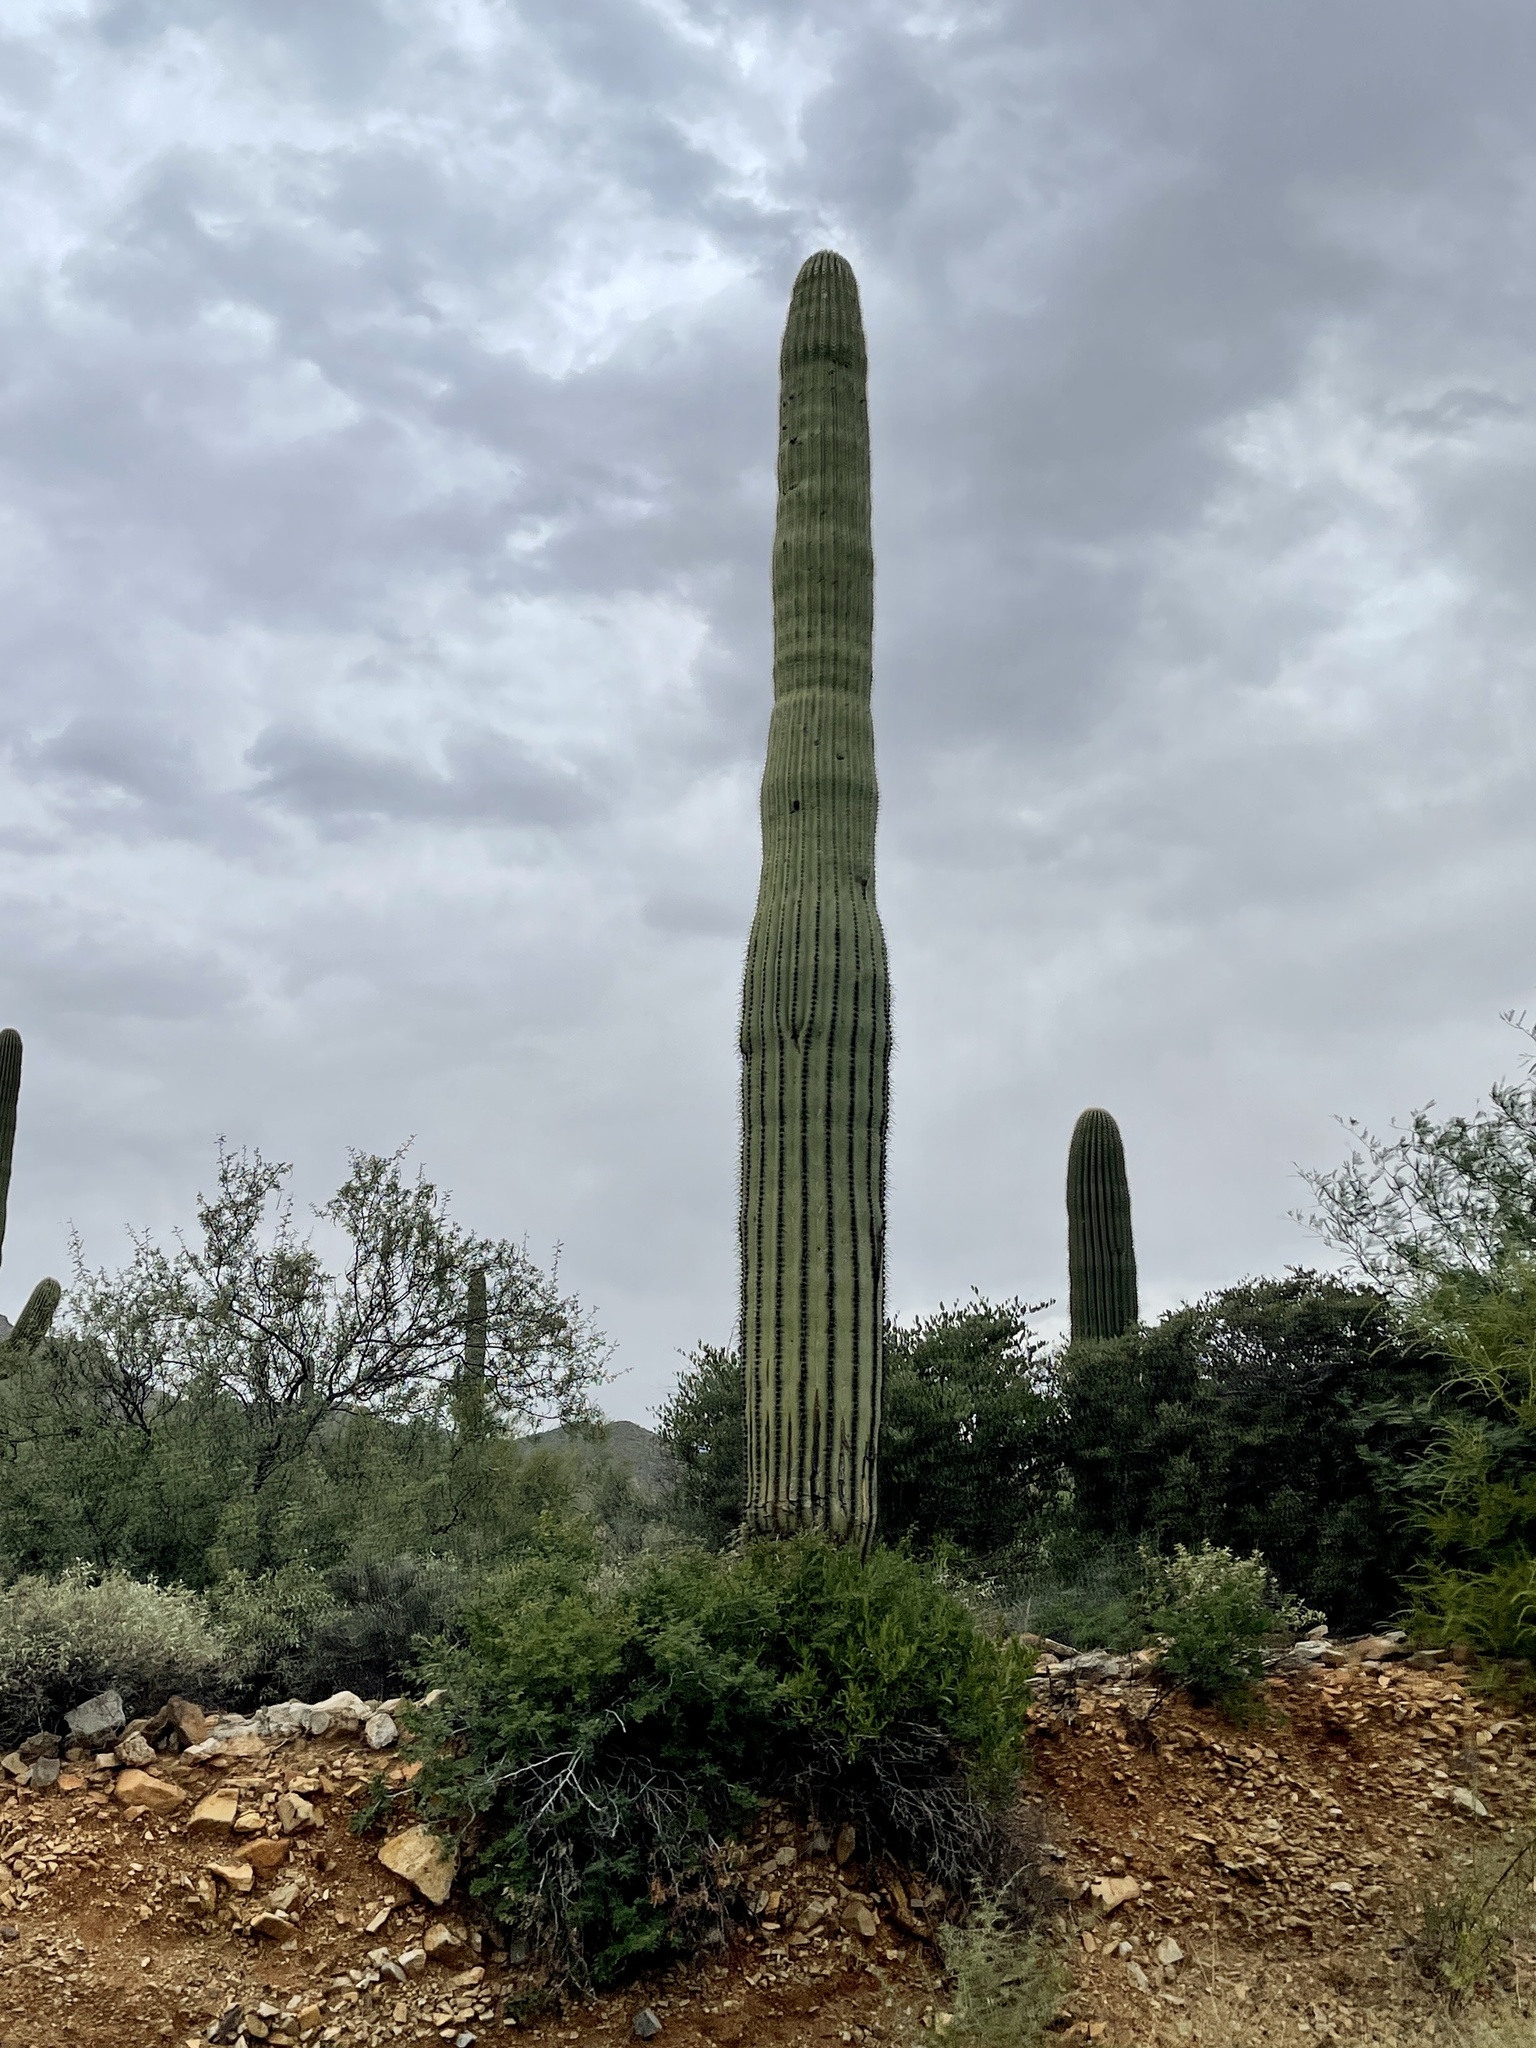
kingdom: Plantae
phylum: Tracheophyta
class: Magnoliopsida
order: Caryophyllales
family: Cactaceae
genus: Carnegiea
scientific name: Carnegiea gigantea
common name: Saguaro
